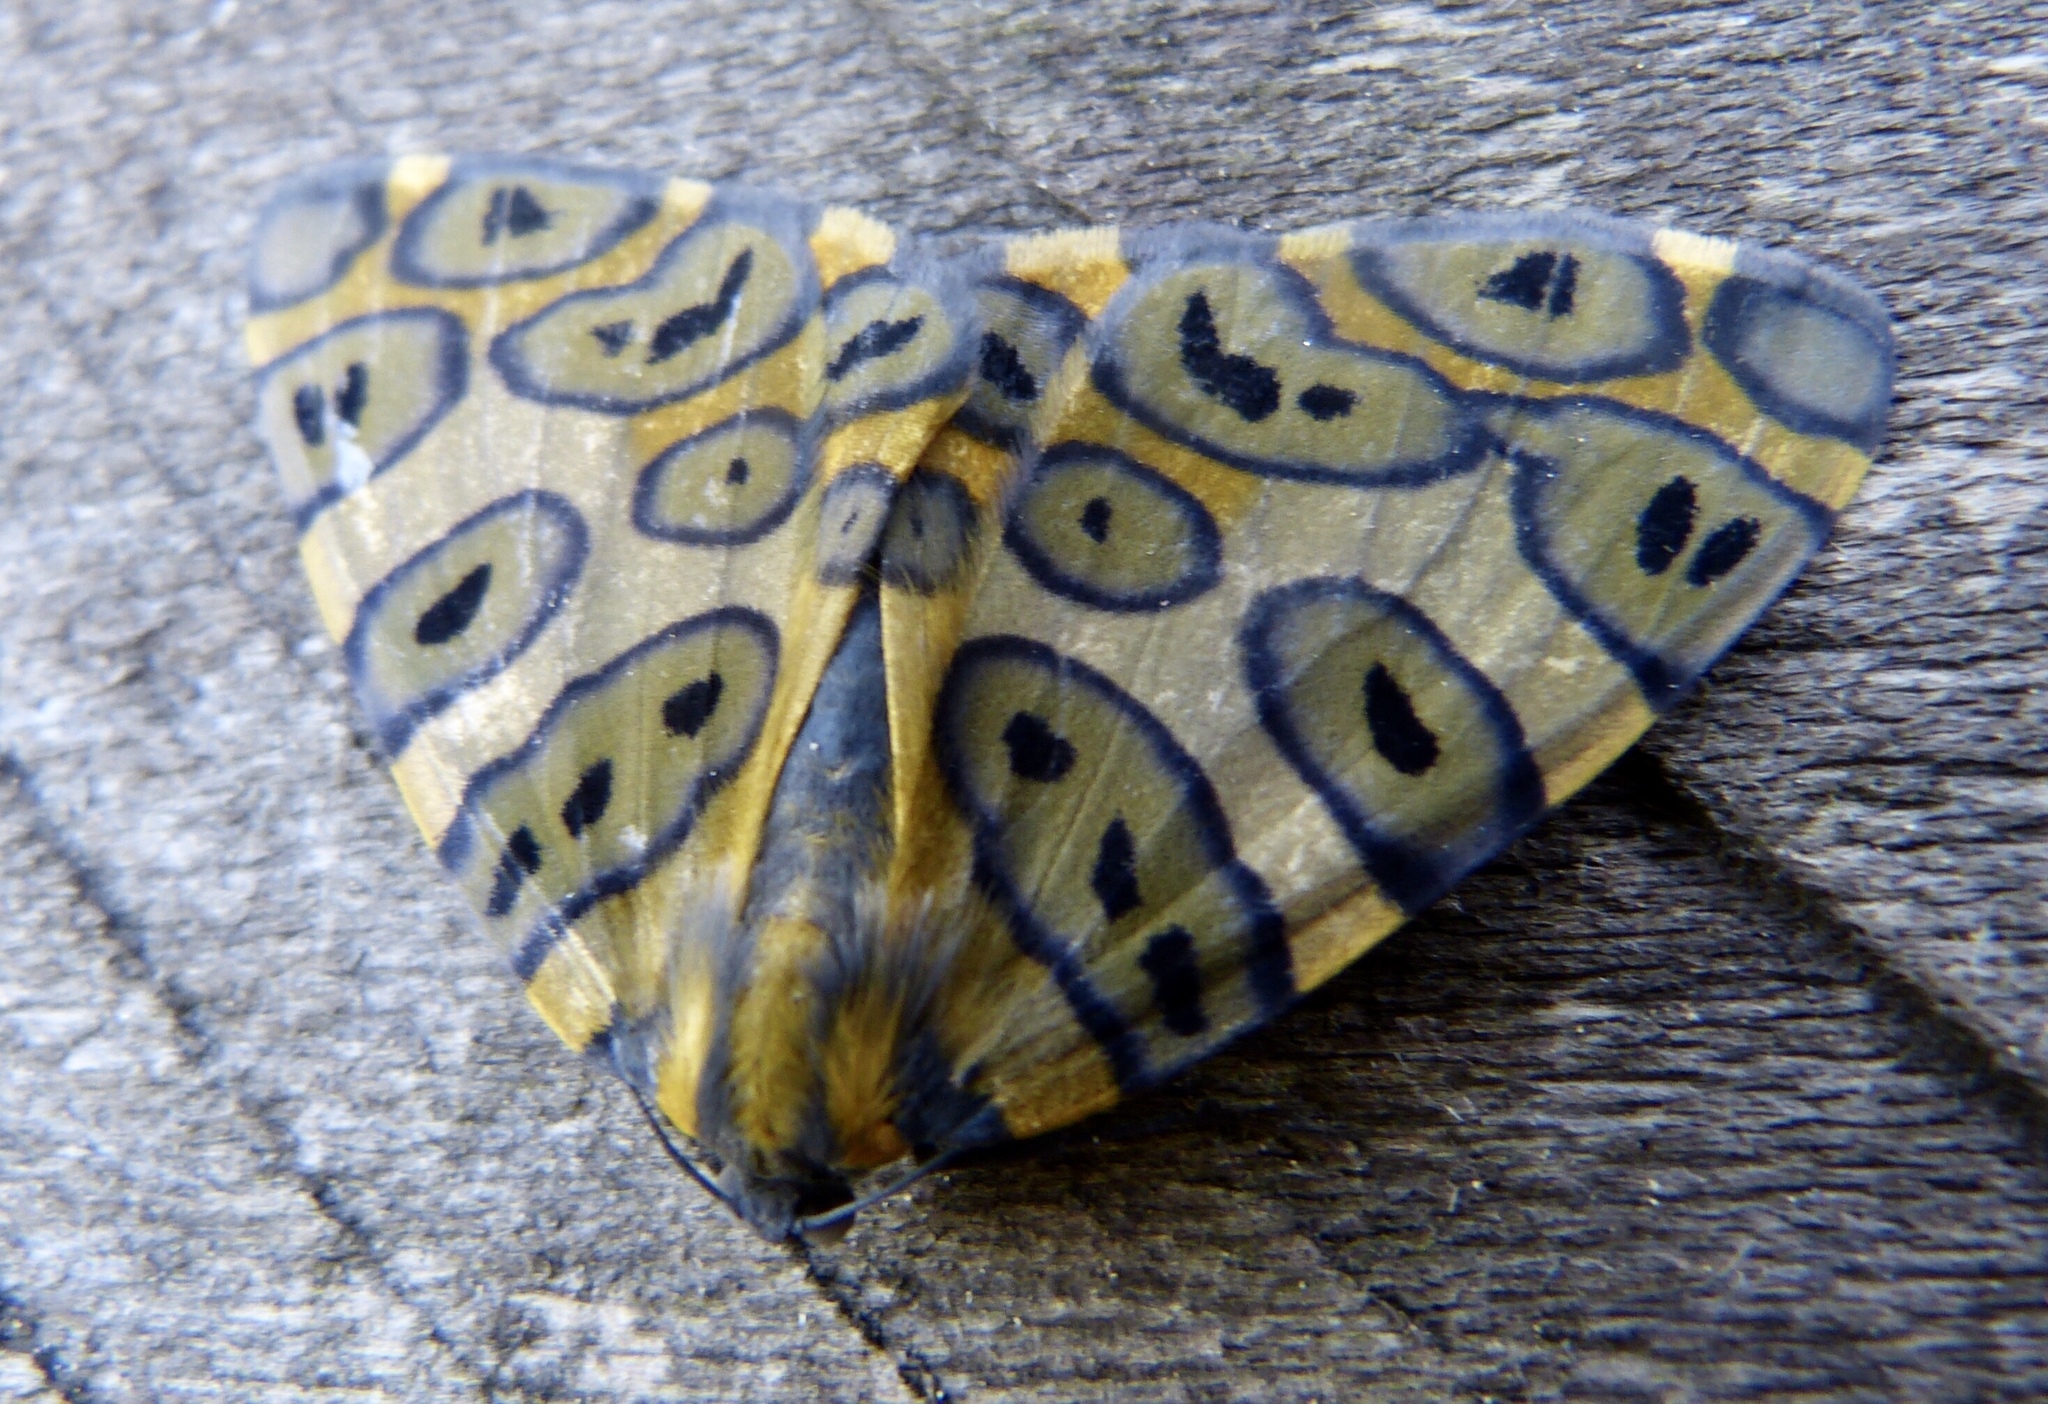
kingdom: Animalia
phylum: Arthropoda
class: Insecta
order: Lepidoptera
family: Geometridae
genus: Pantherodes
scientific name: Pantherodes pardalaria
